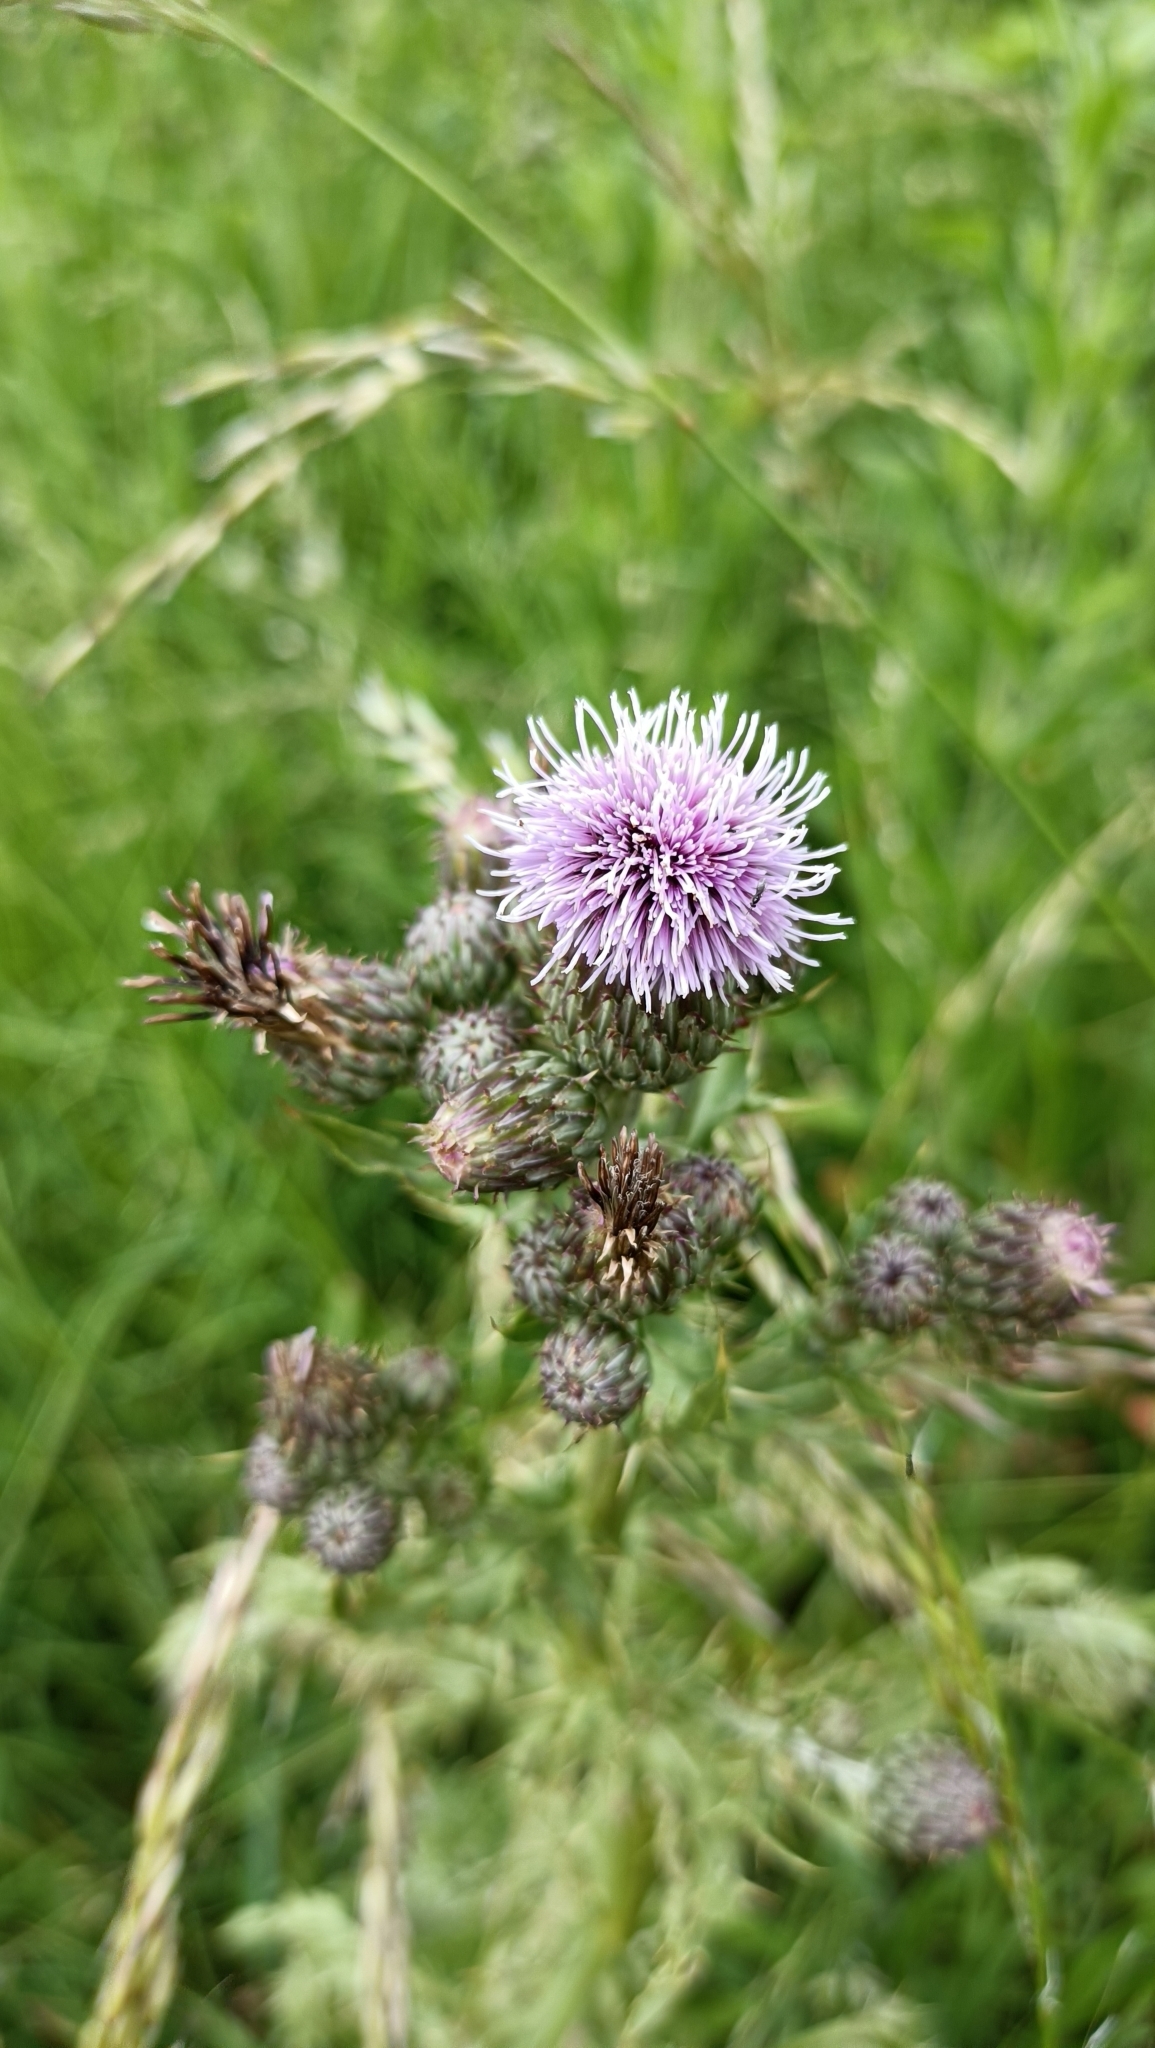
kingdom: Plantae
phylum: Tracheophyta
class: Magnoliopsida
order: Asterales
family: Asteraceae
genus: Cirsium
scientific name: Cirsium arvense
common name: Creeping thistle
